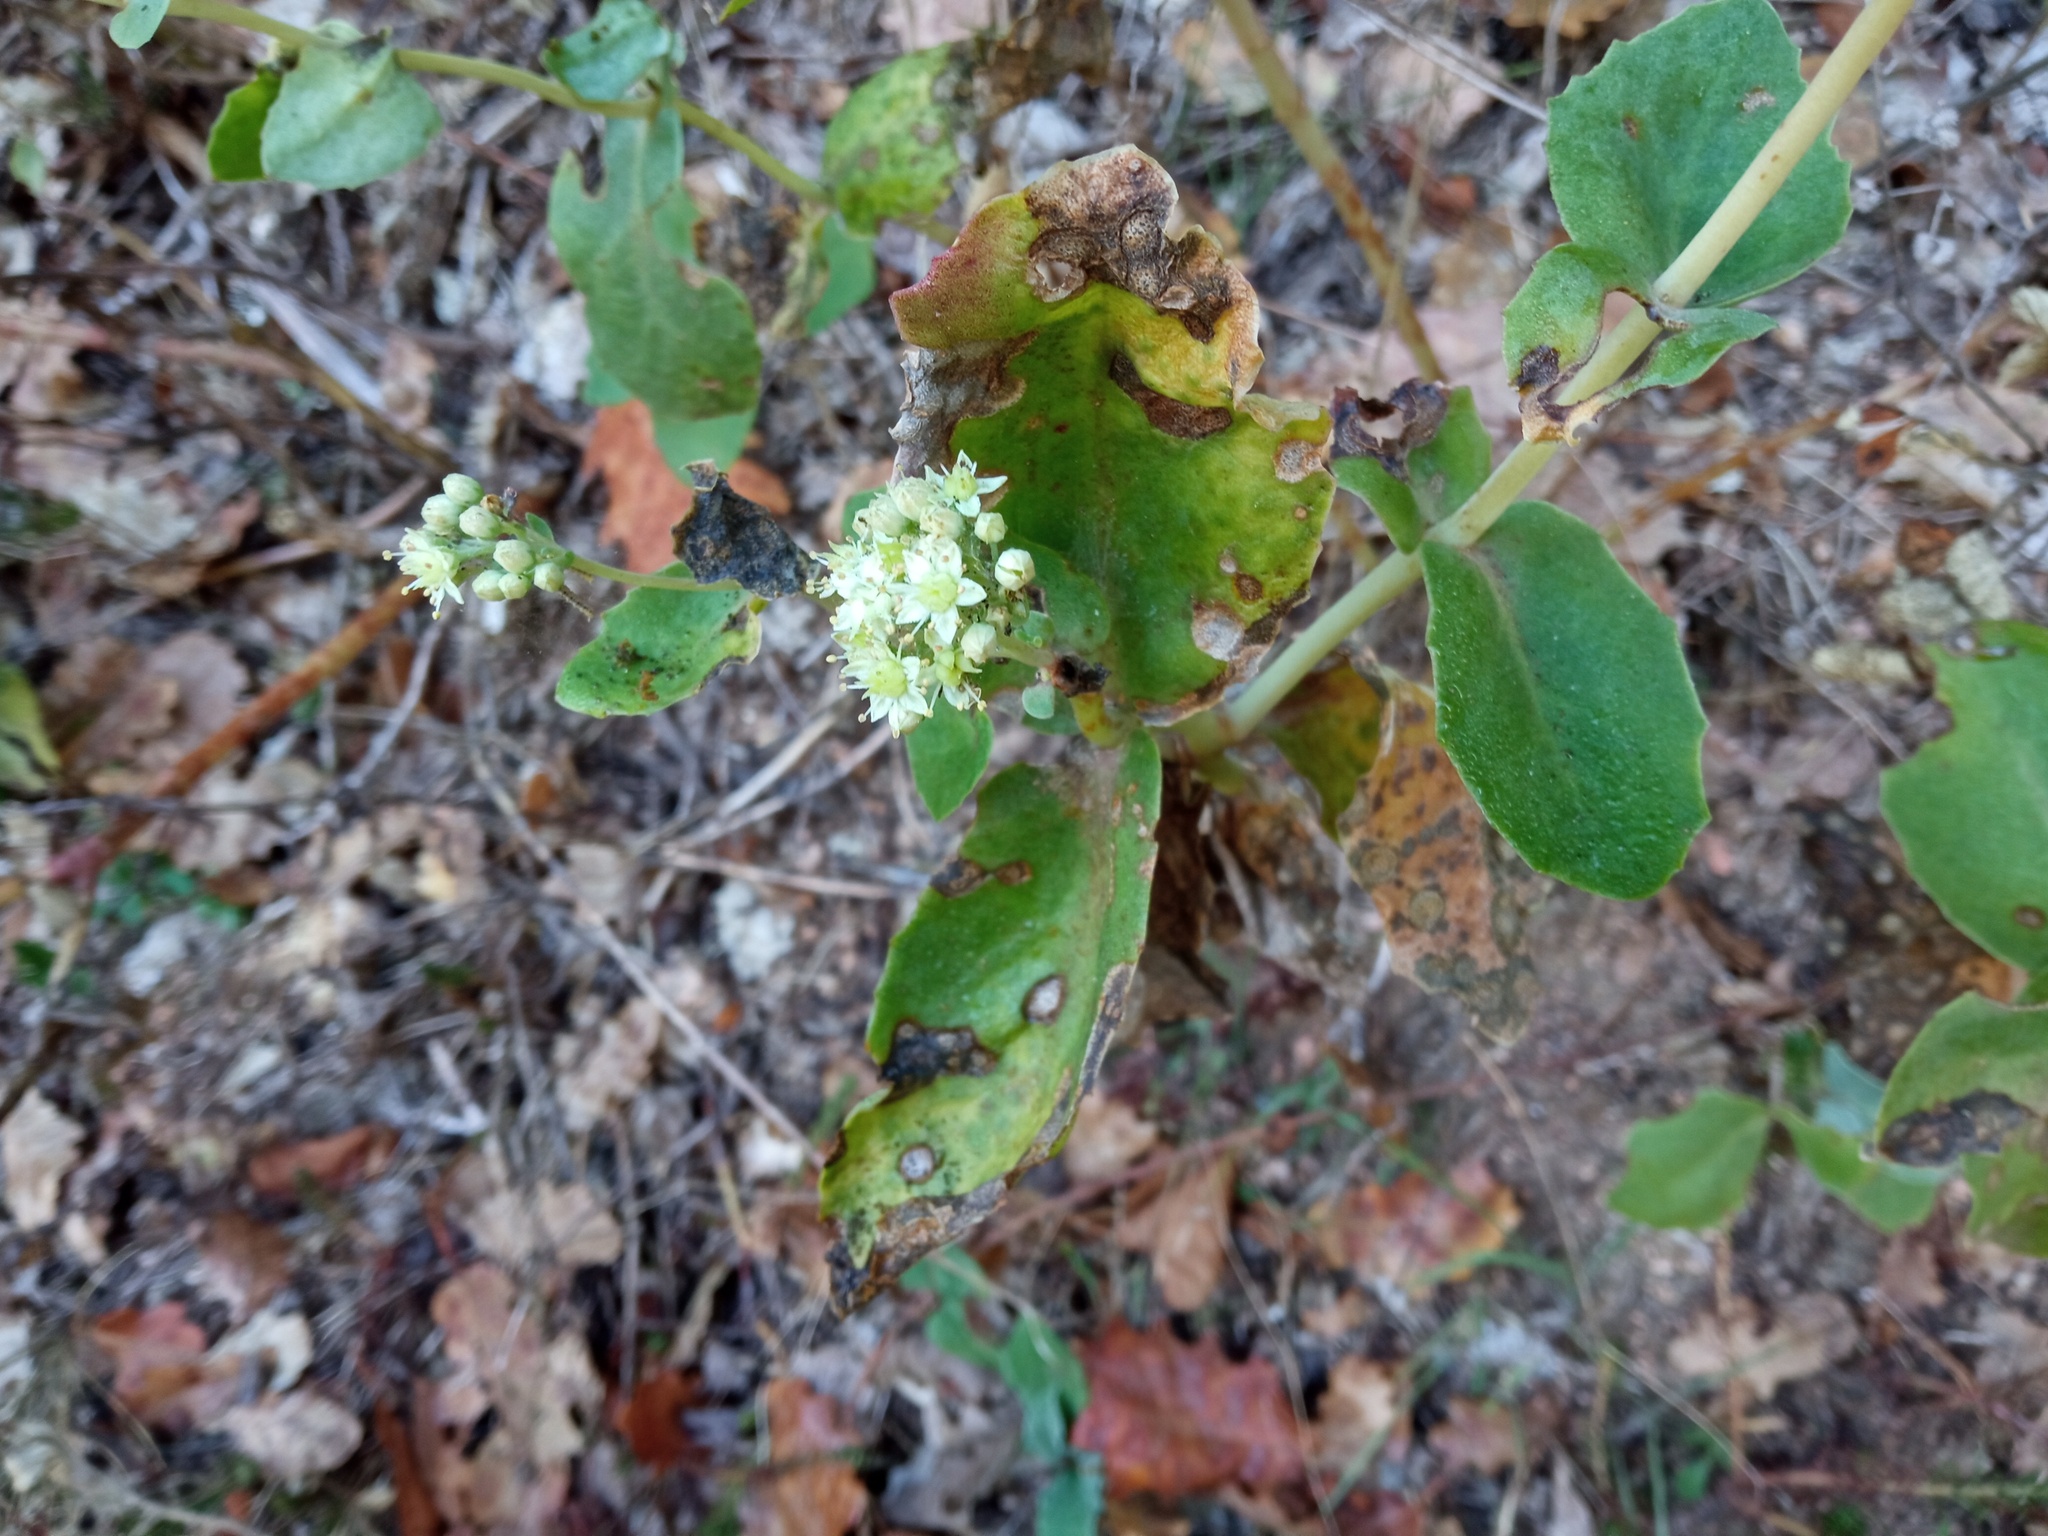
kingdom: Plantae
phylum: Tracheophyta
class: Magnoliopsida
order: Saxifragales
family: Crassulaceae
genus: Hylotelephium
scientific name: Hylotelephium maximum
